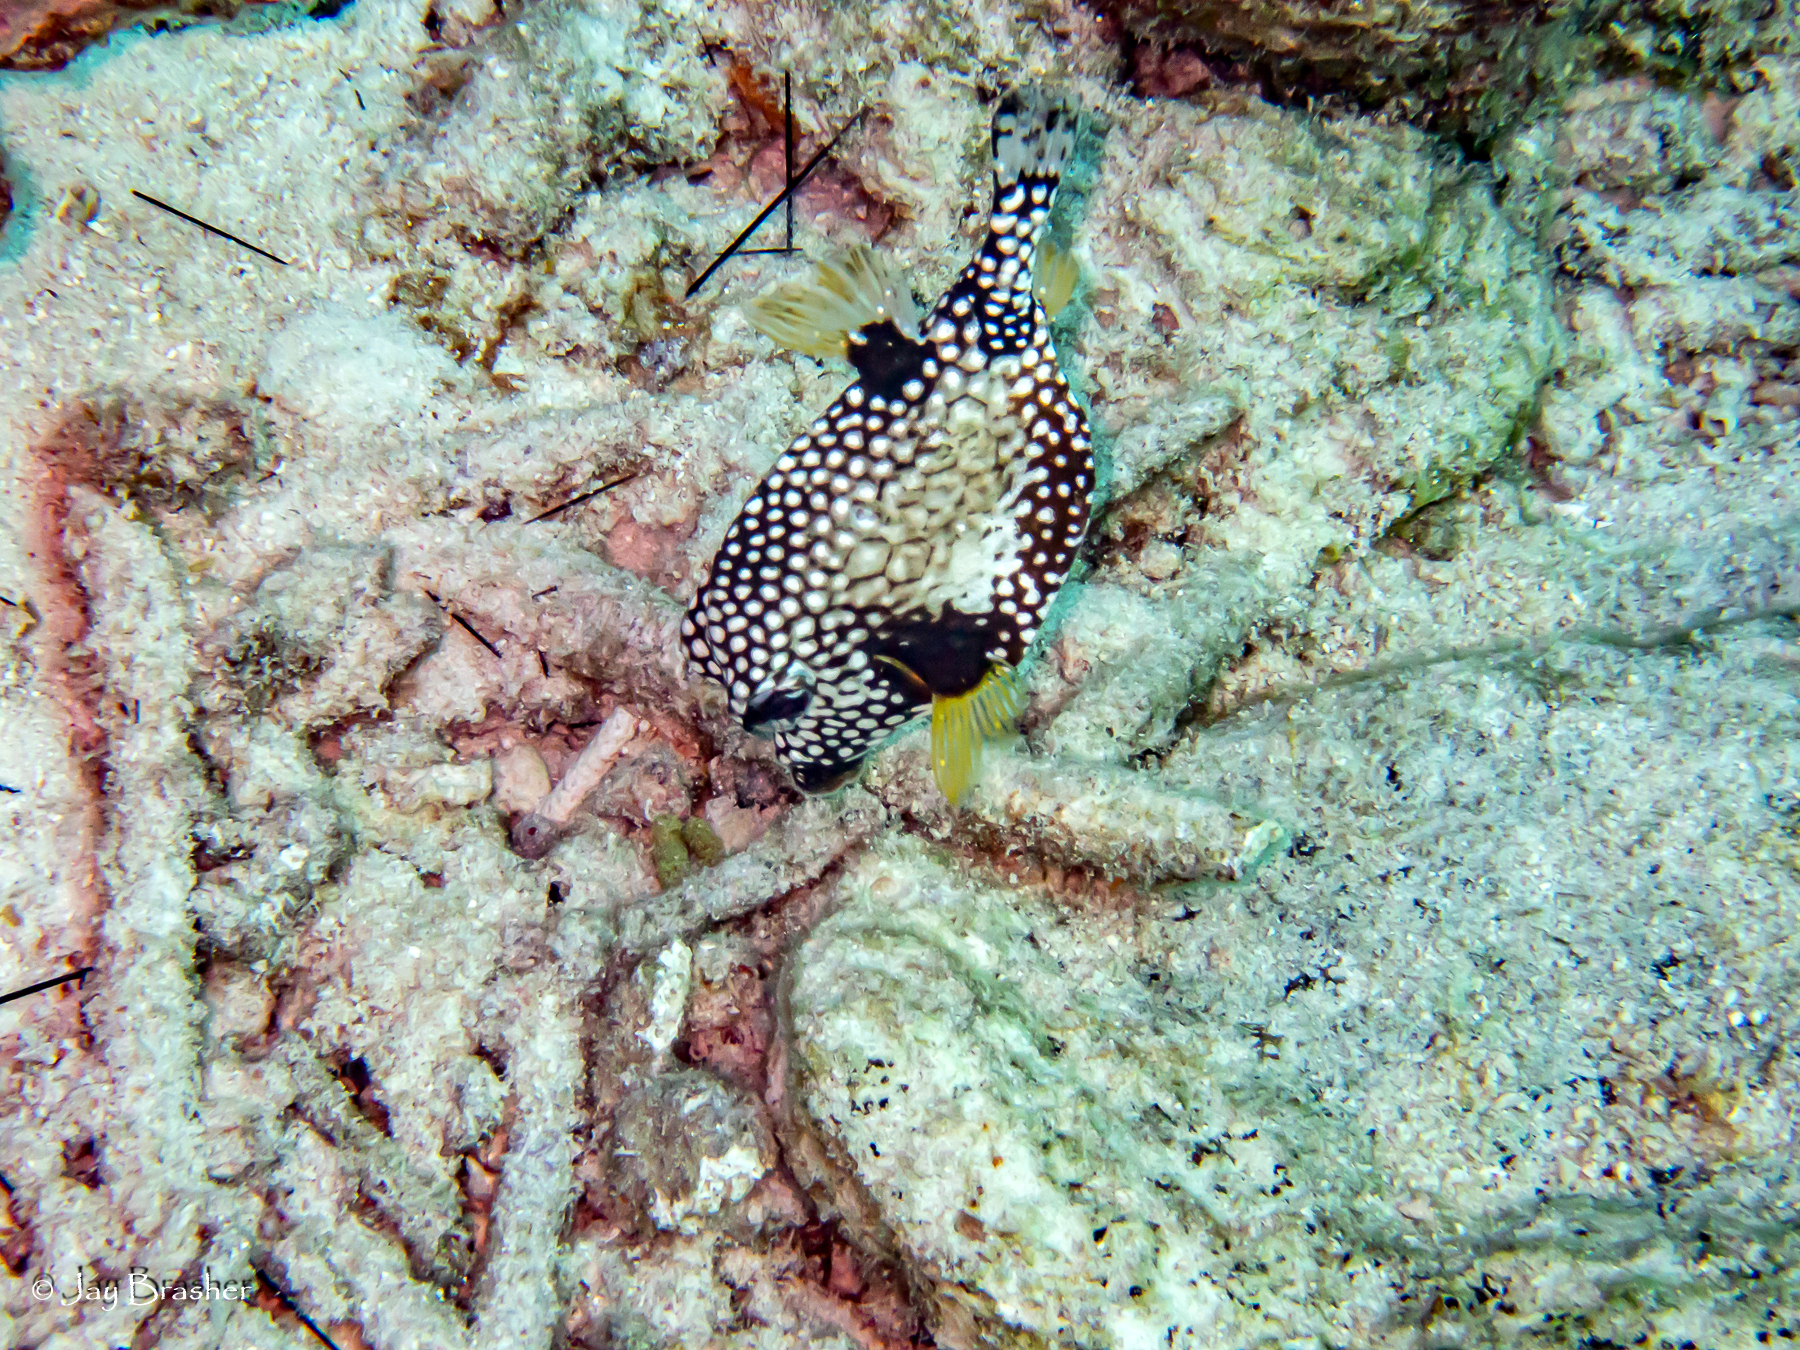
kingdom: Animalia
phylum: Chordata
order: Tetraodontiformes
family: Ostraciidae
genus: Lactophrys
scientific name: Lactophrys triqueter
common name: Smooth trunkfish
